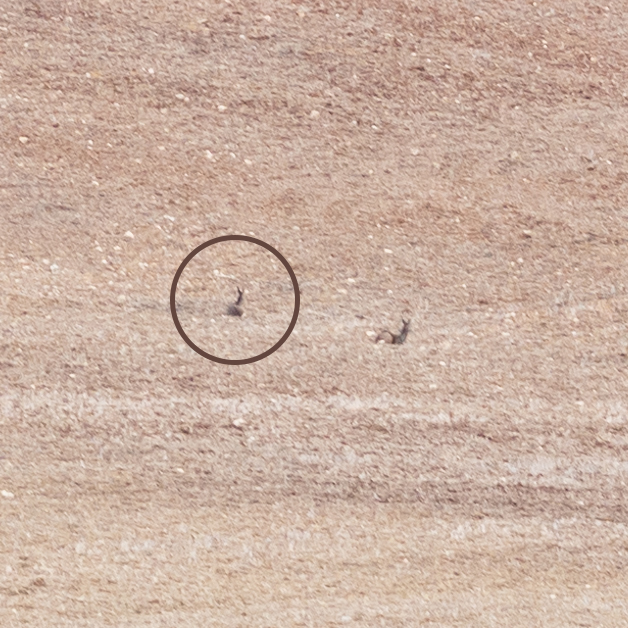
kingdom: Animalia
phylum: Chordata
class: Mammalia
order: Artiodactyla
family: Cervidae
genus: Capreolus
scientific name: Capreolus capreolus
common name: Western roe deer
